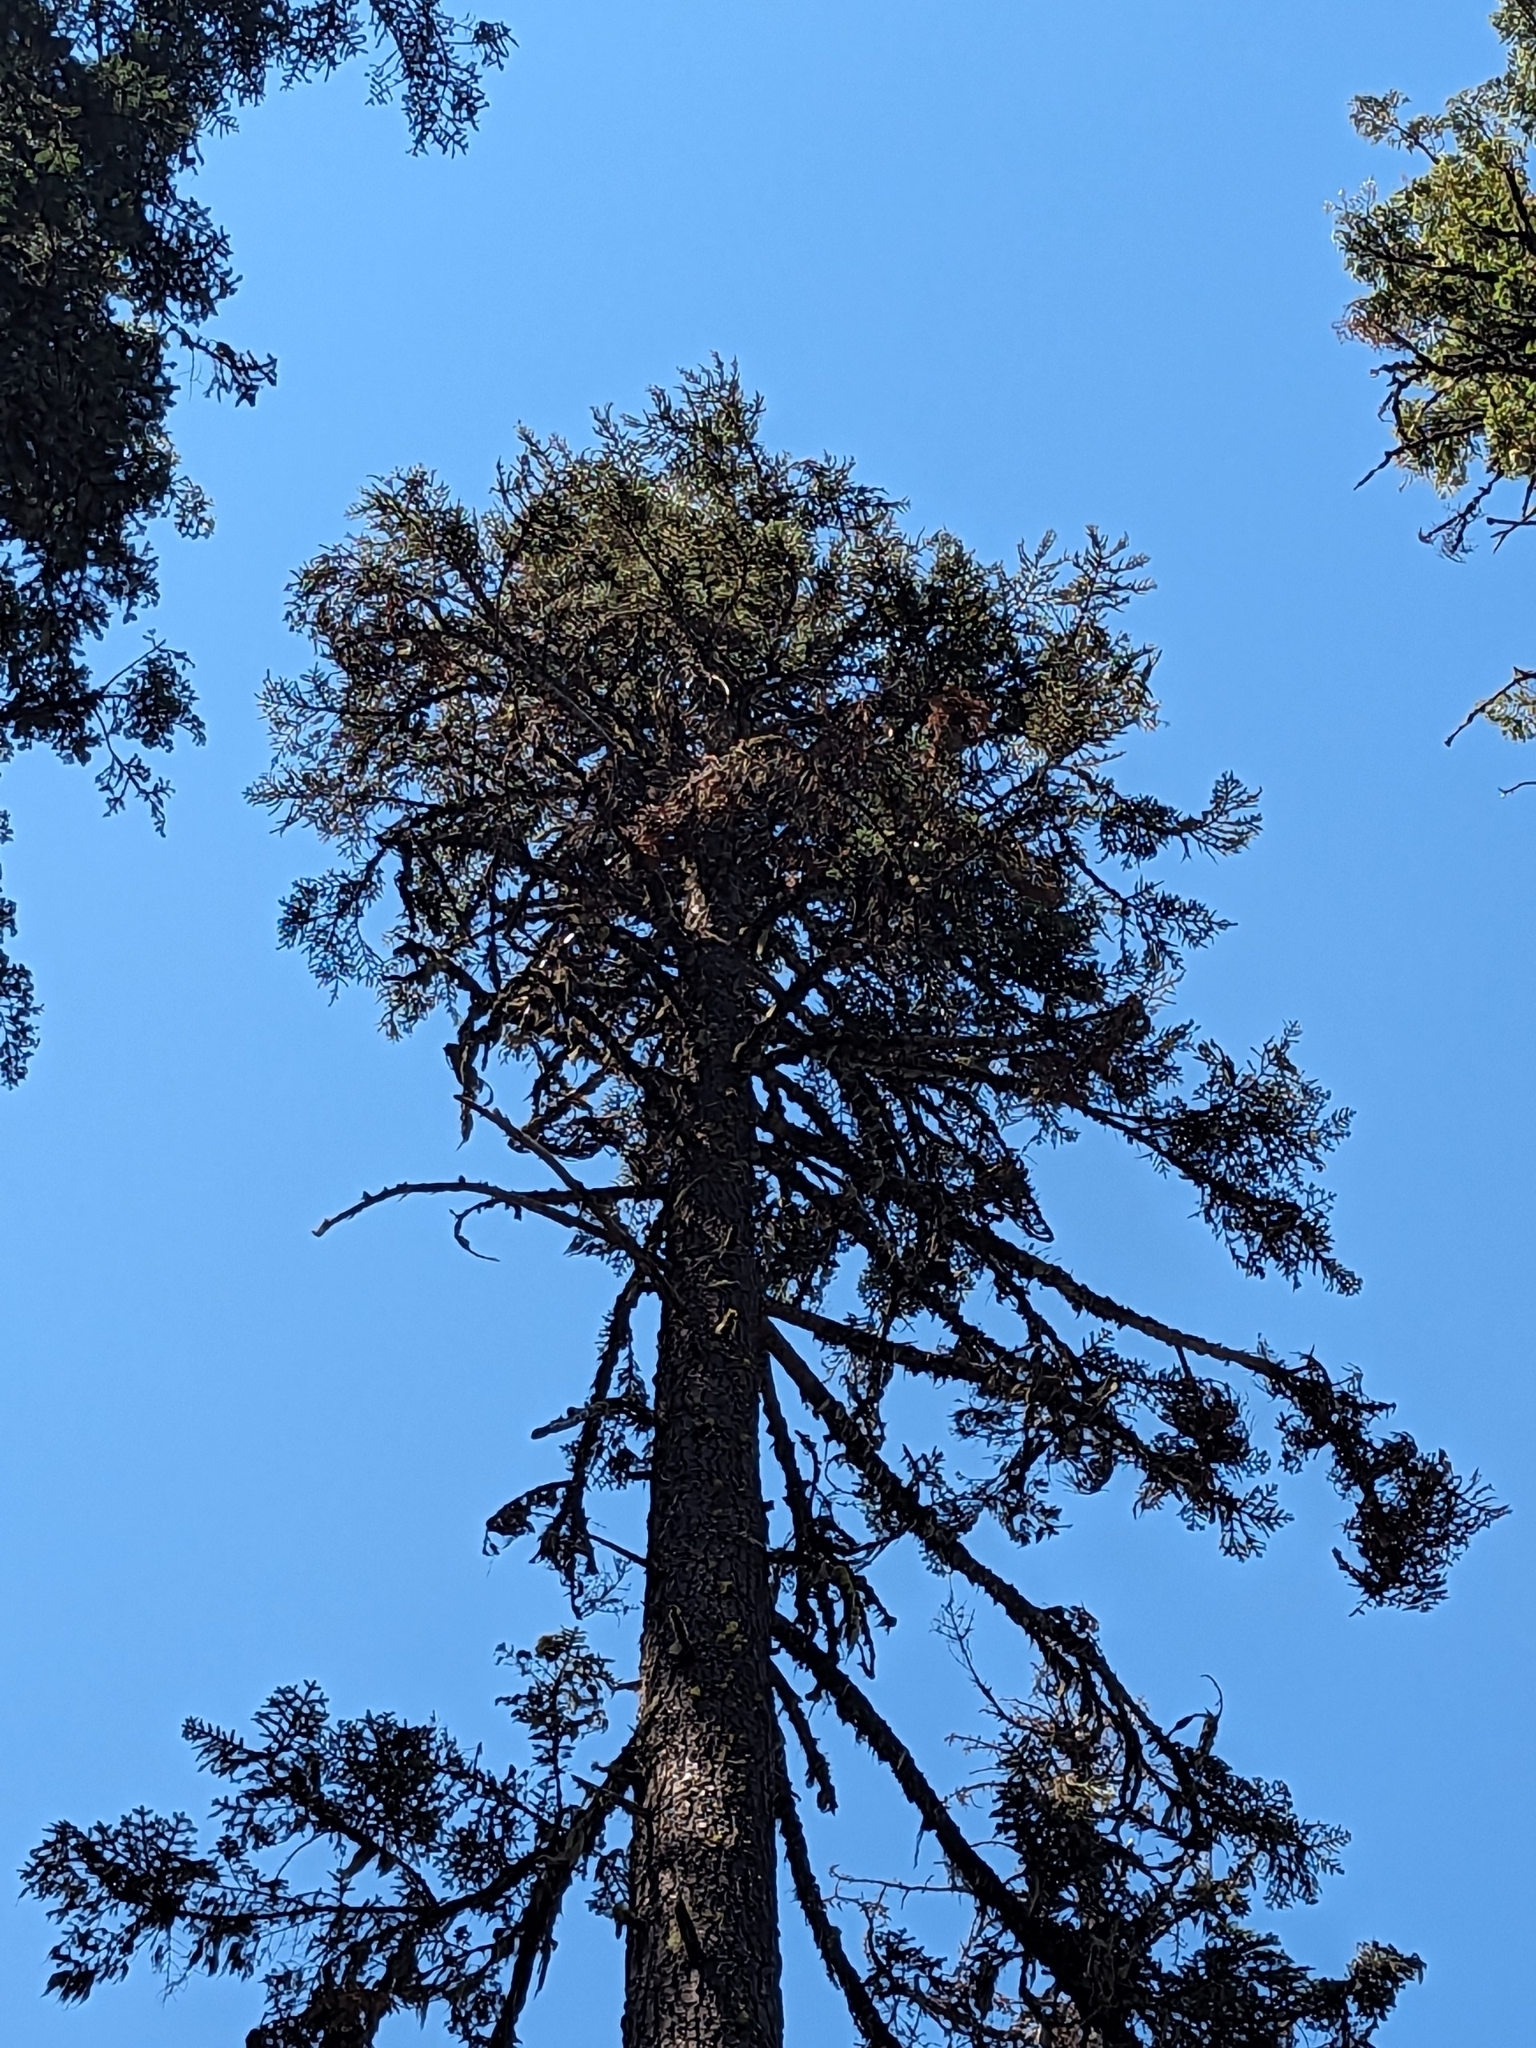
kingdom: Plantae
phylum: Tracheophyta
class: Pinopsida
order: Pinales
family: Pinaceae
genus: Abies
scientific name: Abies magnifica bis
